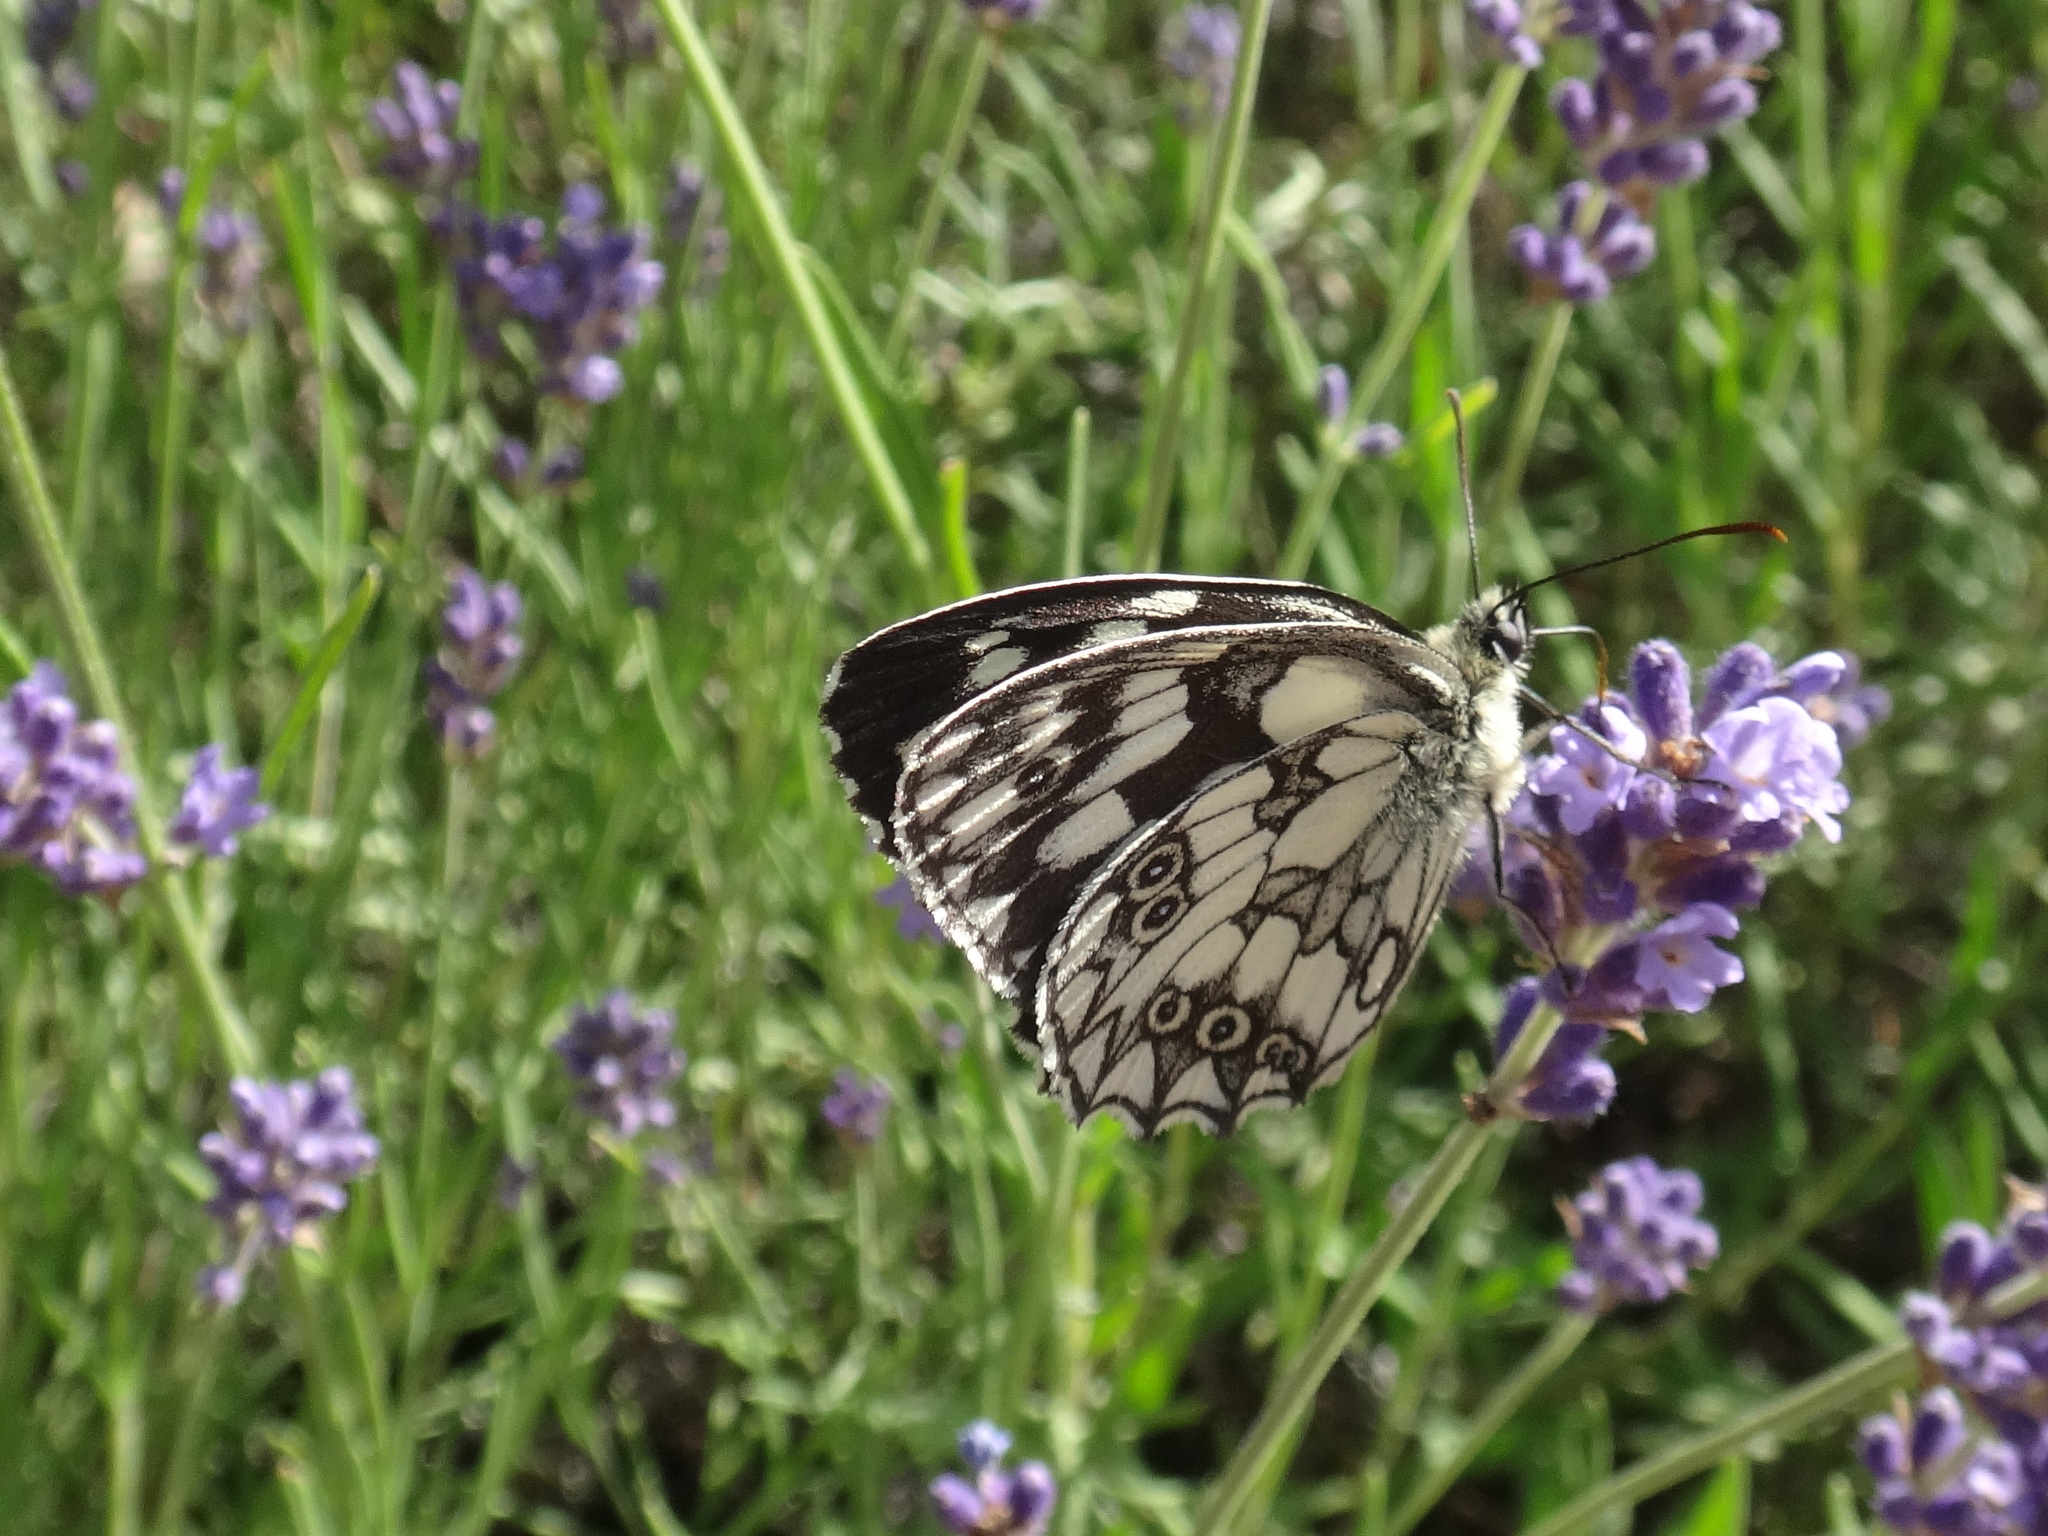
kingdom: Animalia
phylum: Arthropoda
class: Insecta
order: Lepidoptera
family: Nymphalidae
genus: Melanargia
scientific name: Melanargia galathea
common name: Marbled white
